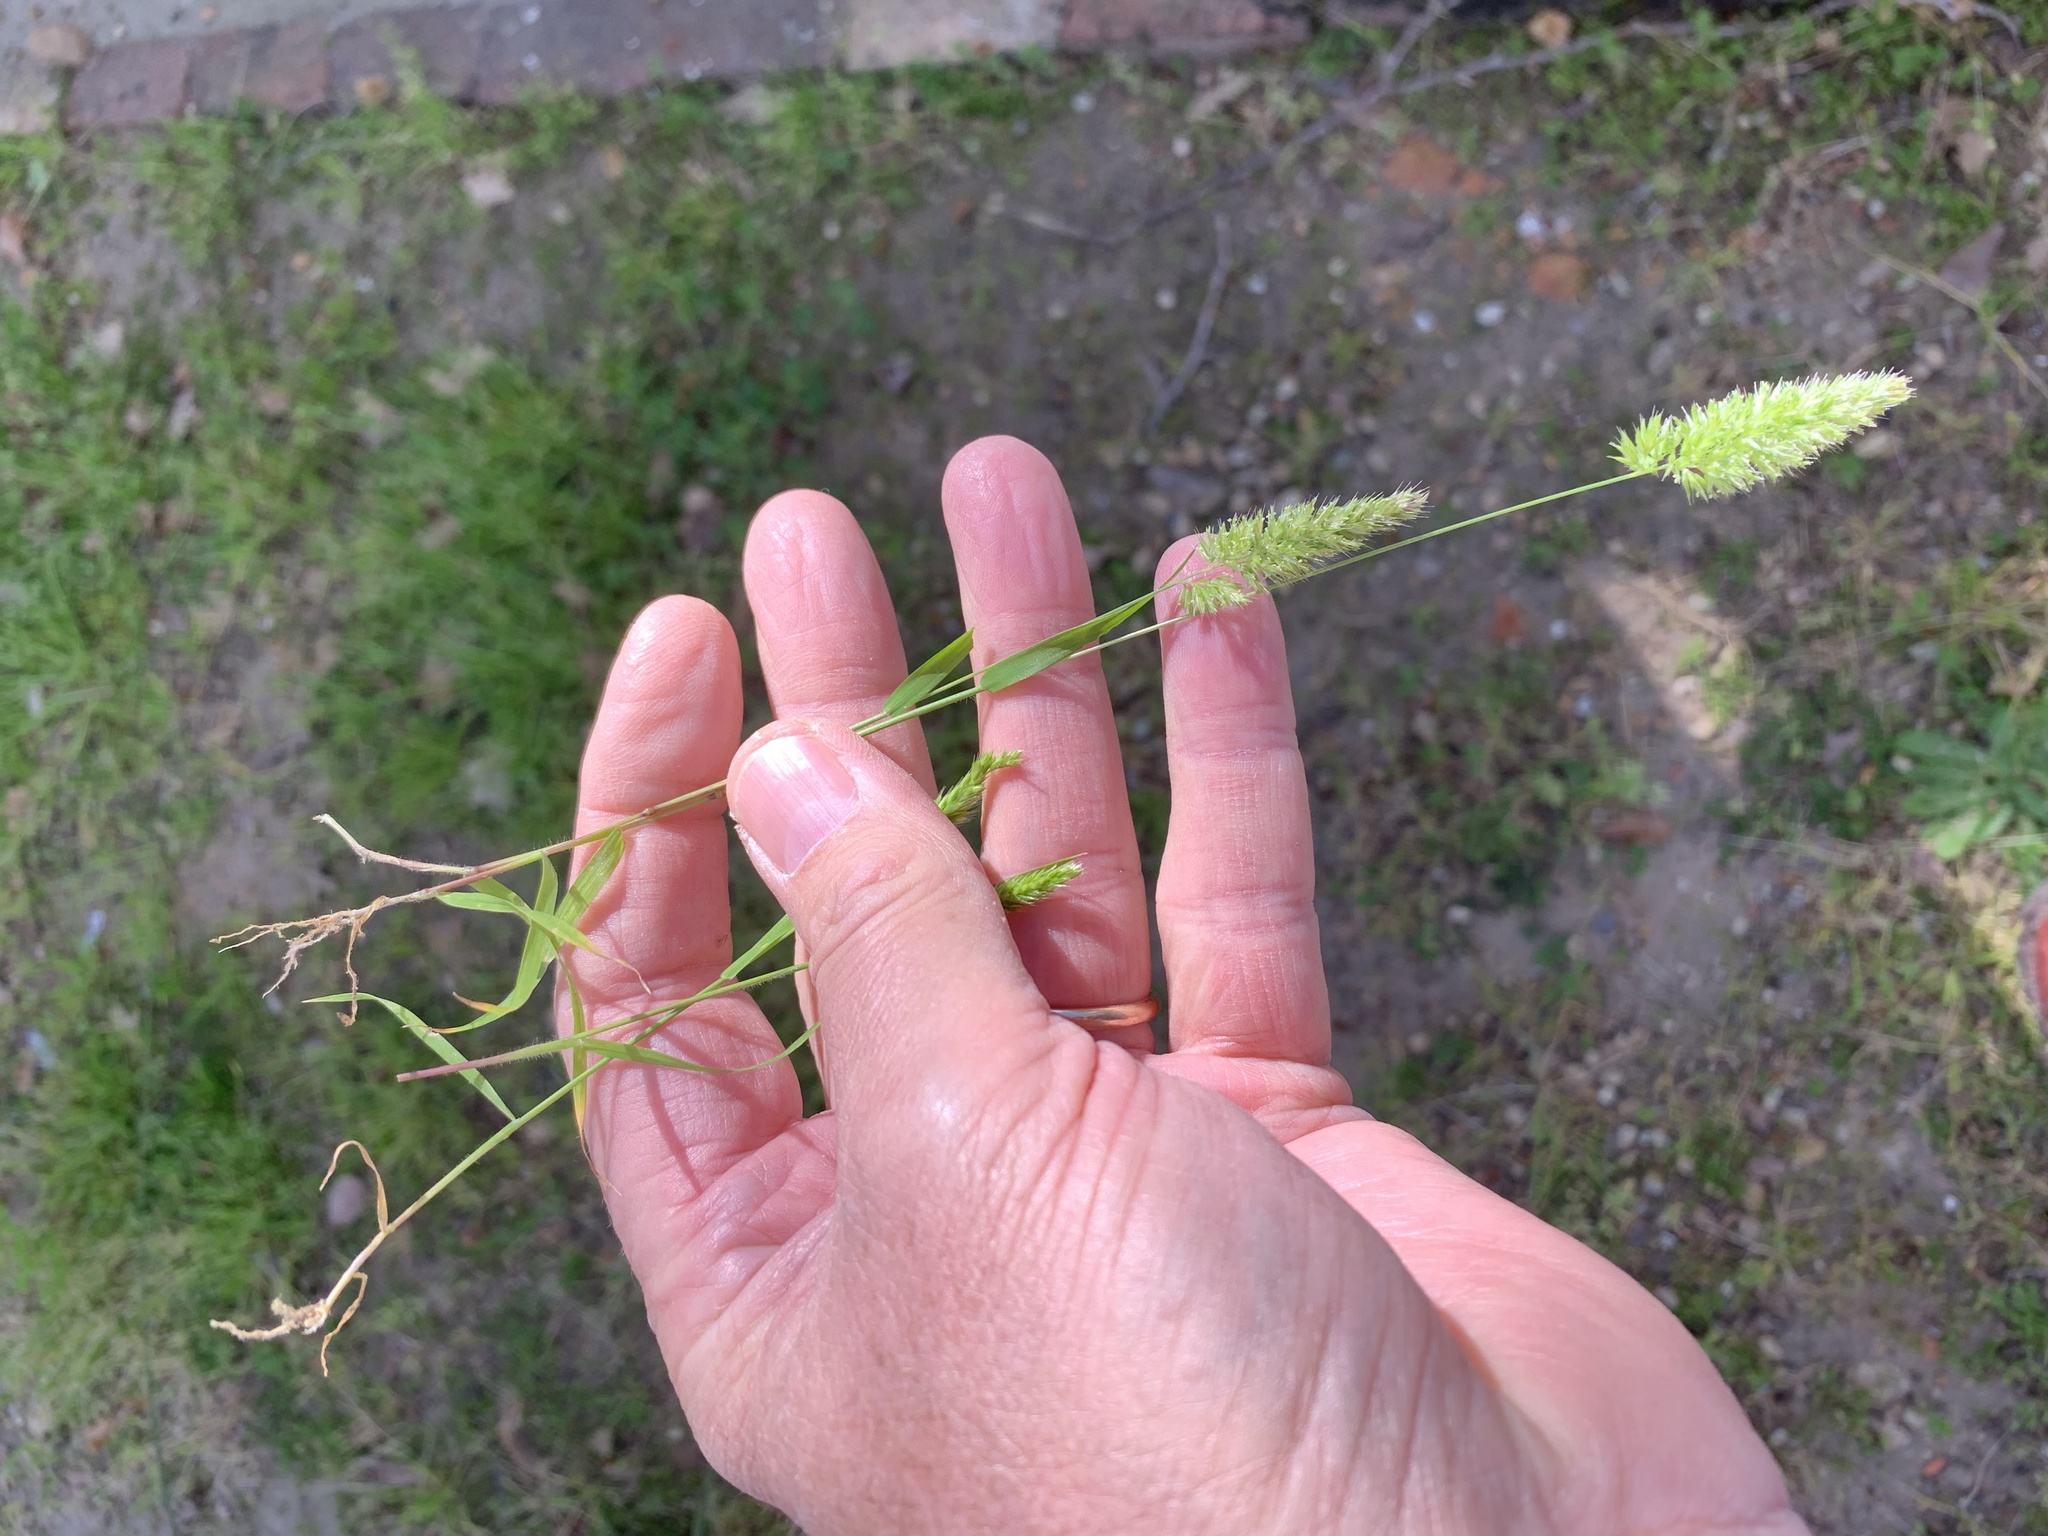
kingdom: Plantae
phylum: Tracheophyta
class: Liliopsida
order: Poales
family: Poaceae
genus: Rostraria
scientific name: Rostraria cristata
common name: Mediterranean hair-grass
